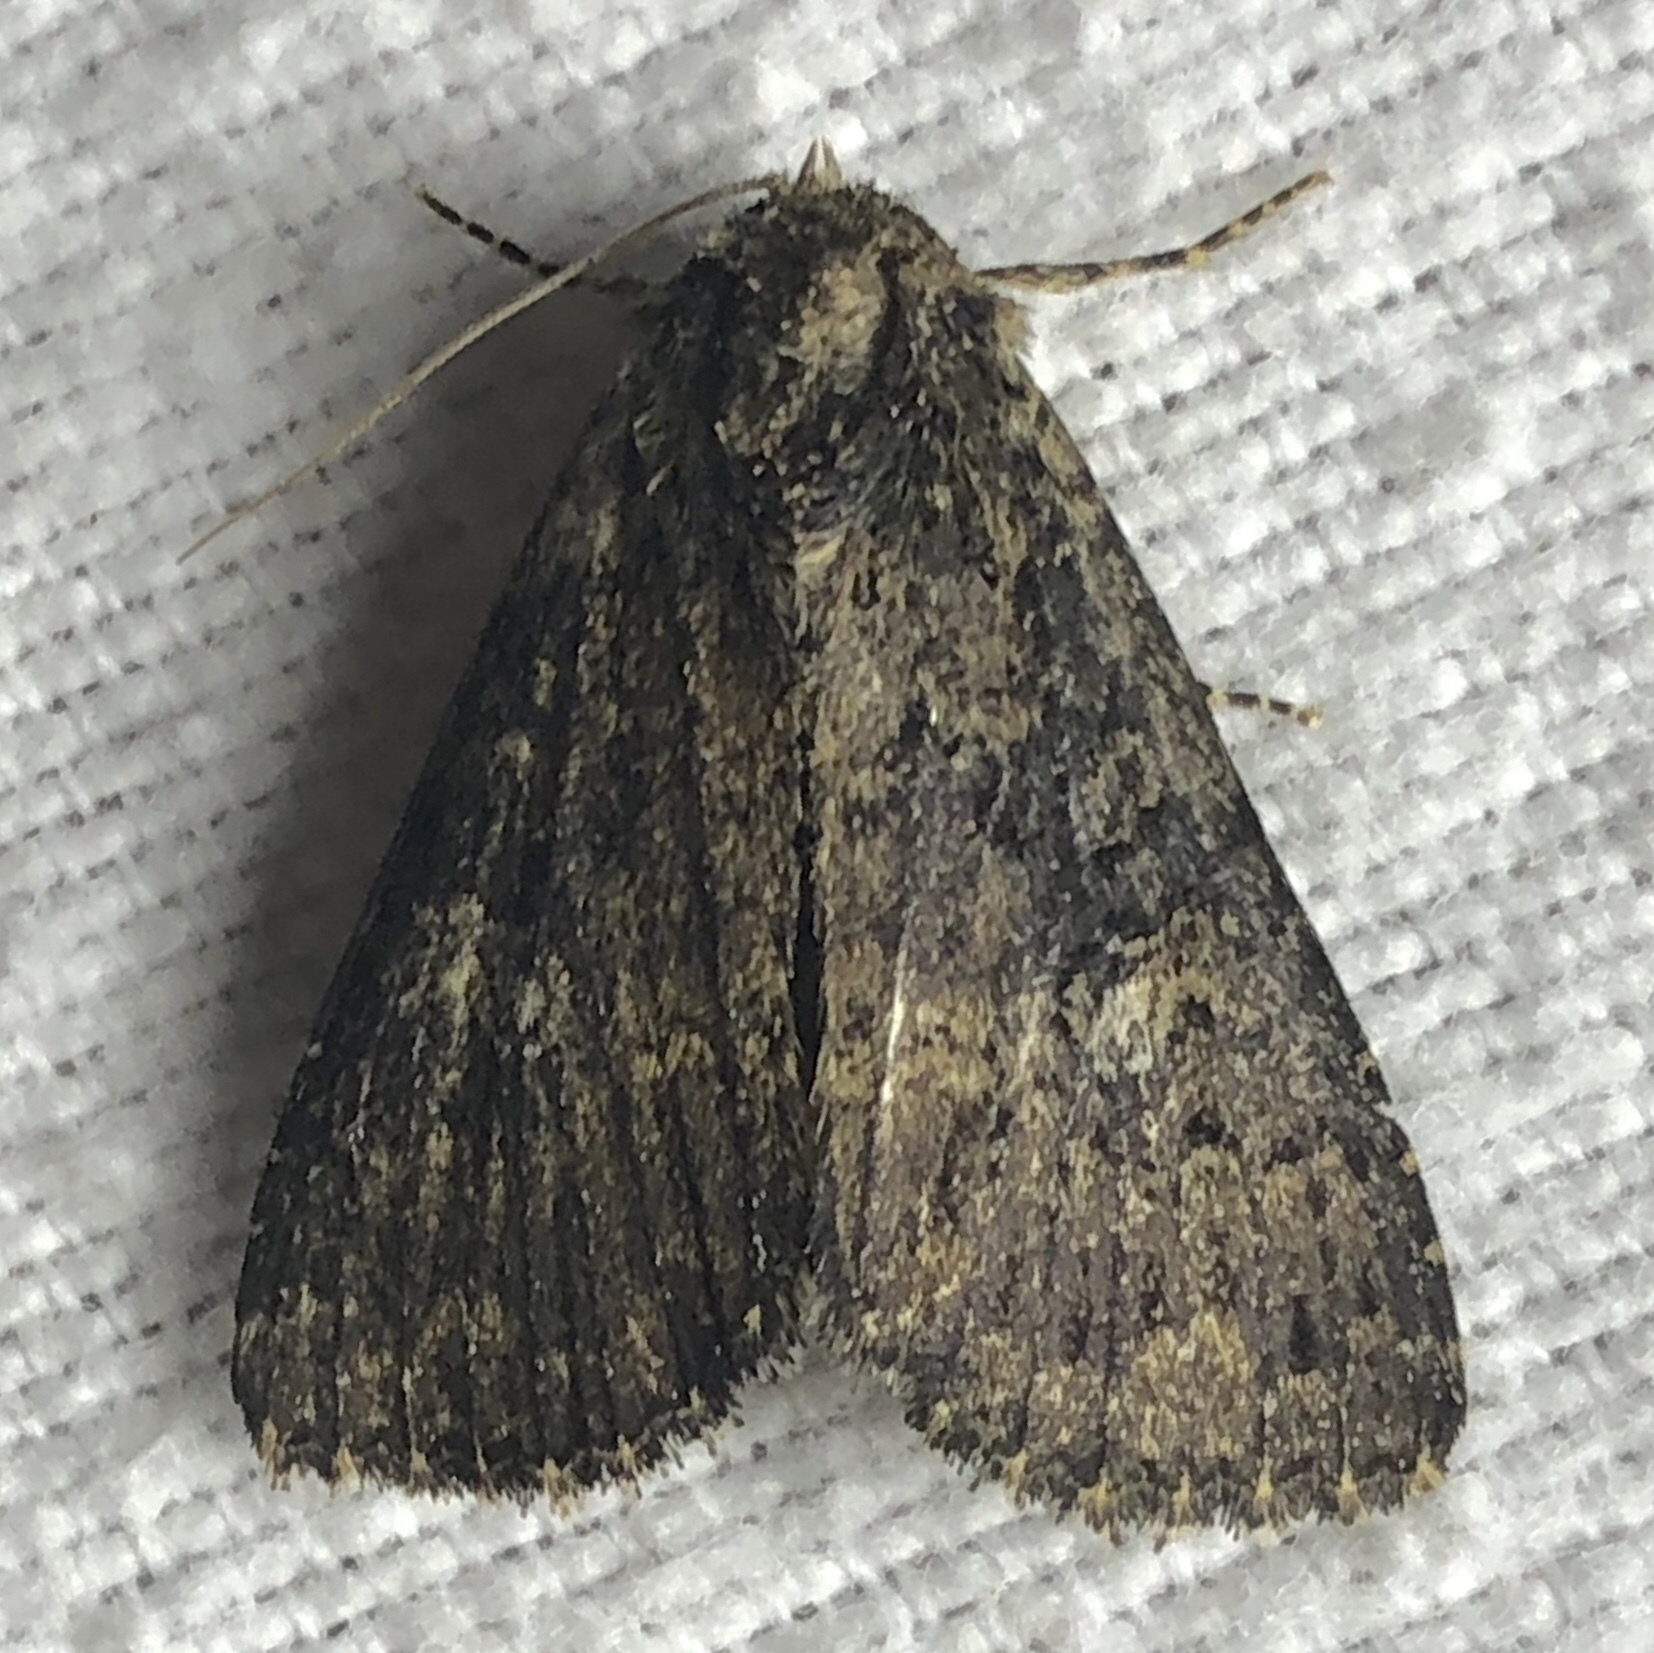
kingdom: Animalia
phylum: Arthropoda
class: Insecta
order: Lepidoptera
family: Noctuidae
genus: Condica
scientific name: Condica vecors
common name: Dusky groundling
